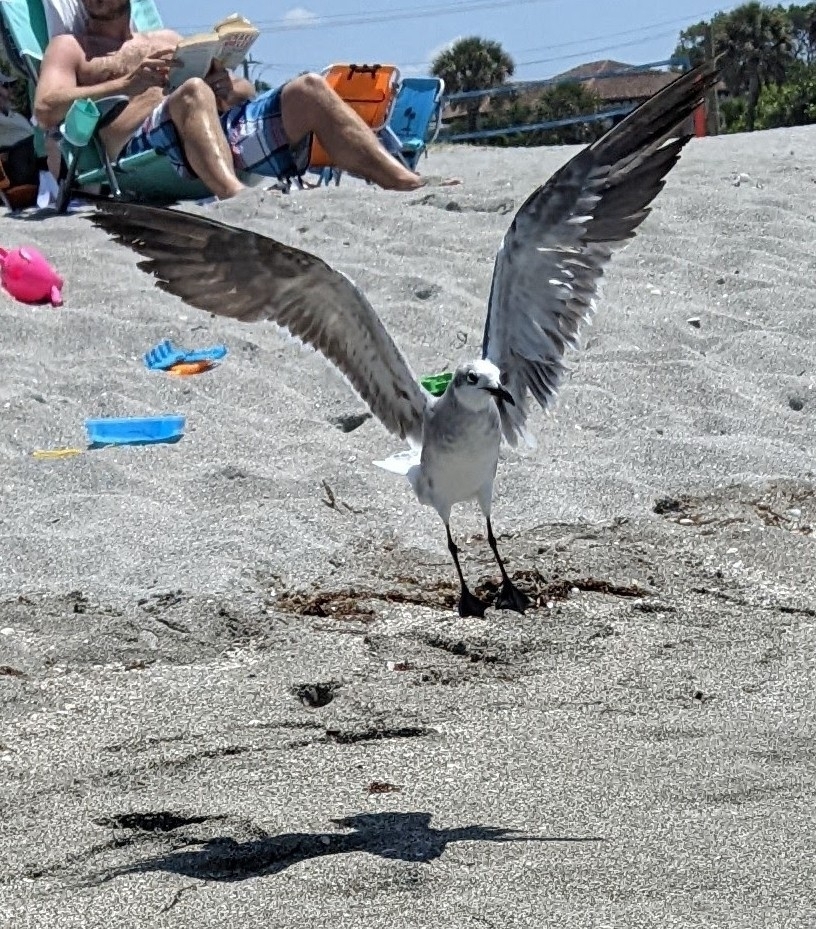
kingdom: Animalia
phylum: Chordata
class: Aves
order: Charadriiformes
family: Laridae
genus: Leucophaeus
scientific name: Leucophaeus atricilla
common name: Laughing gull
